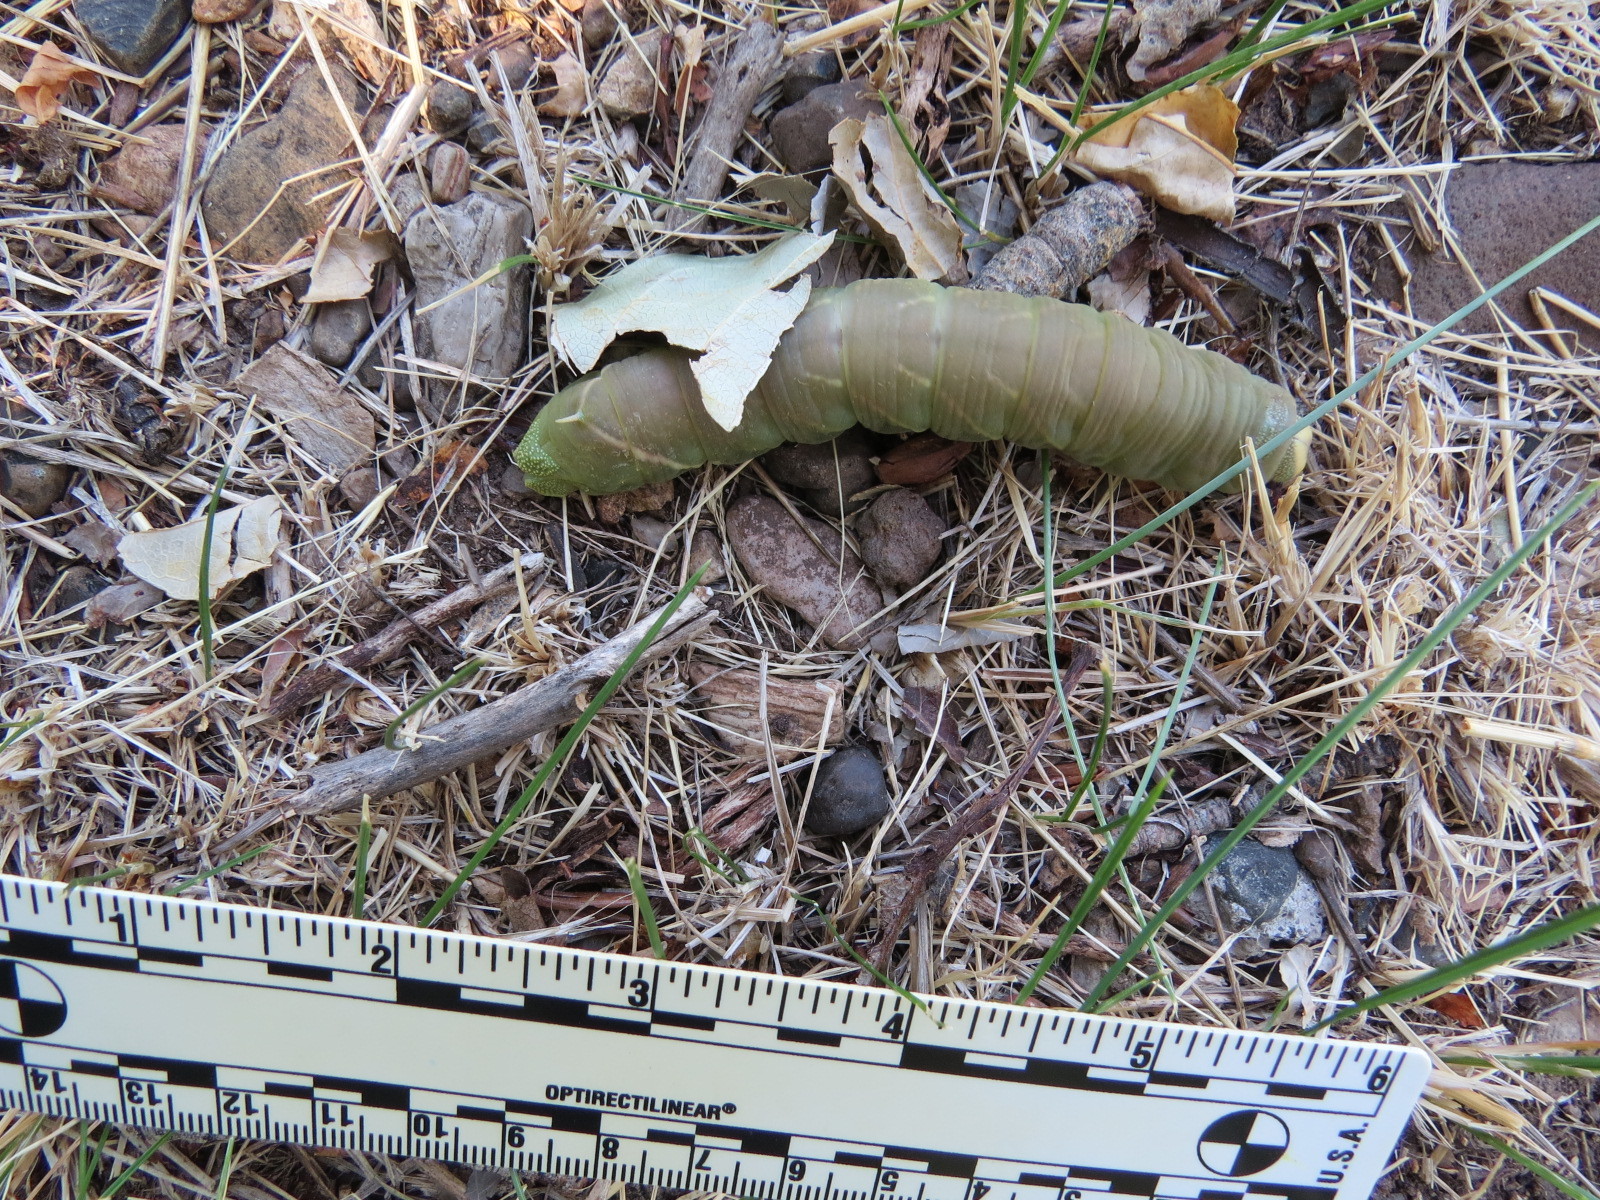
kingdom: Animalia
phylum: Arthropoda
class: Insecta
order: Lepidoptera
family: Sphingidae
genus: Pachysphinx
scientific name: Pachysphinx occidentalis
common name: Western poplar sphinx
